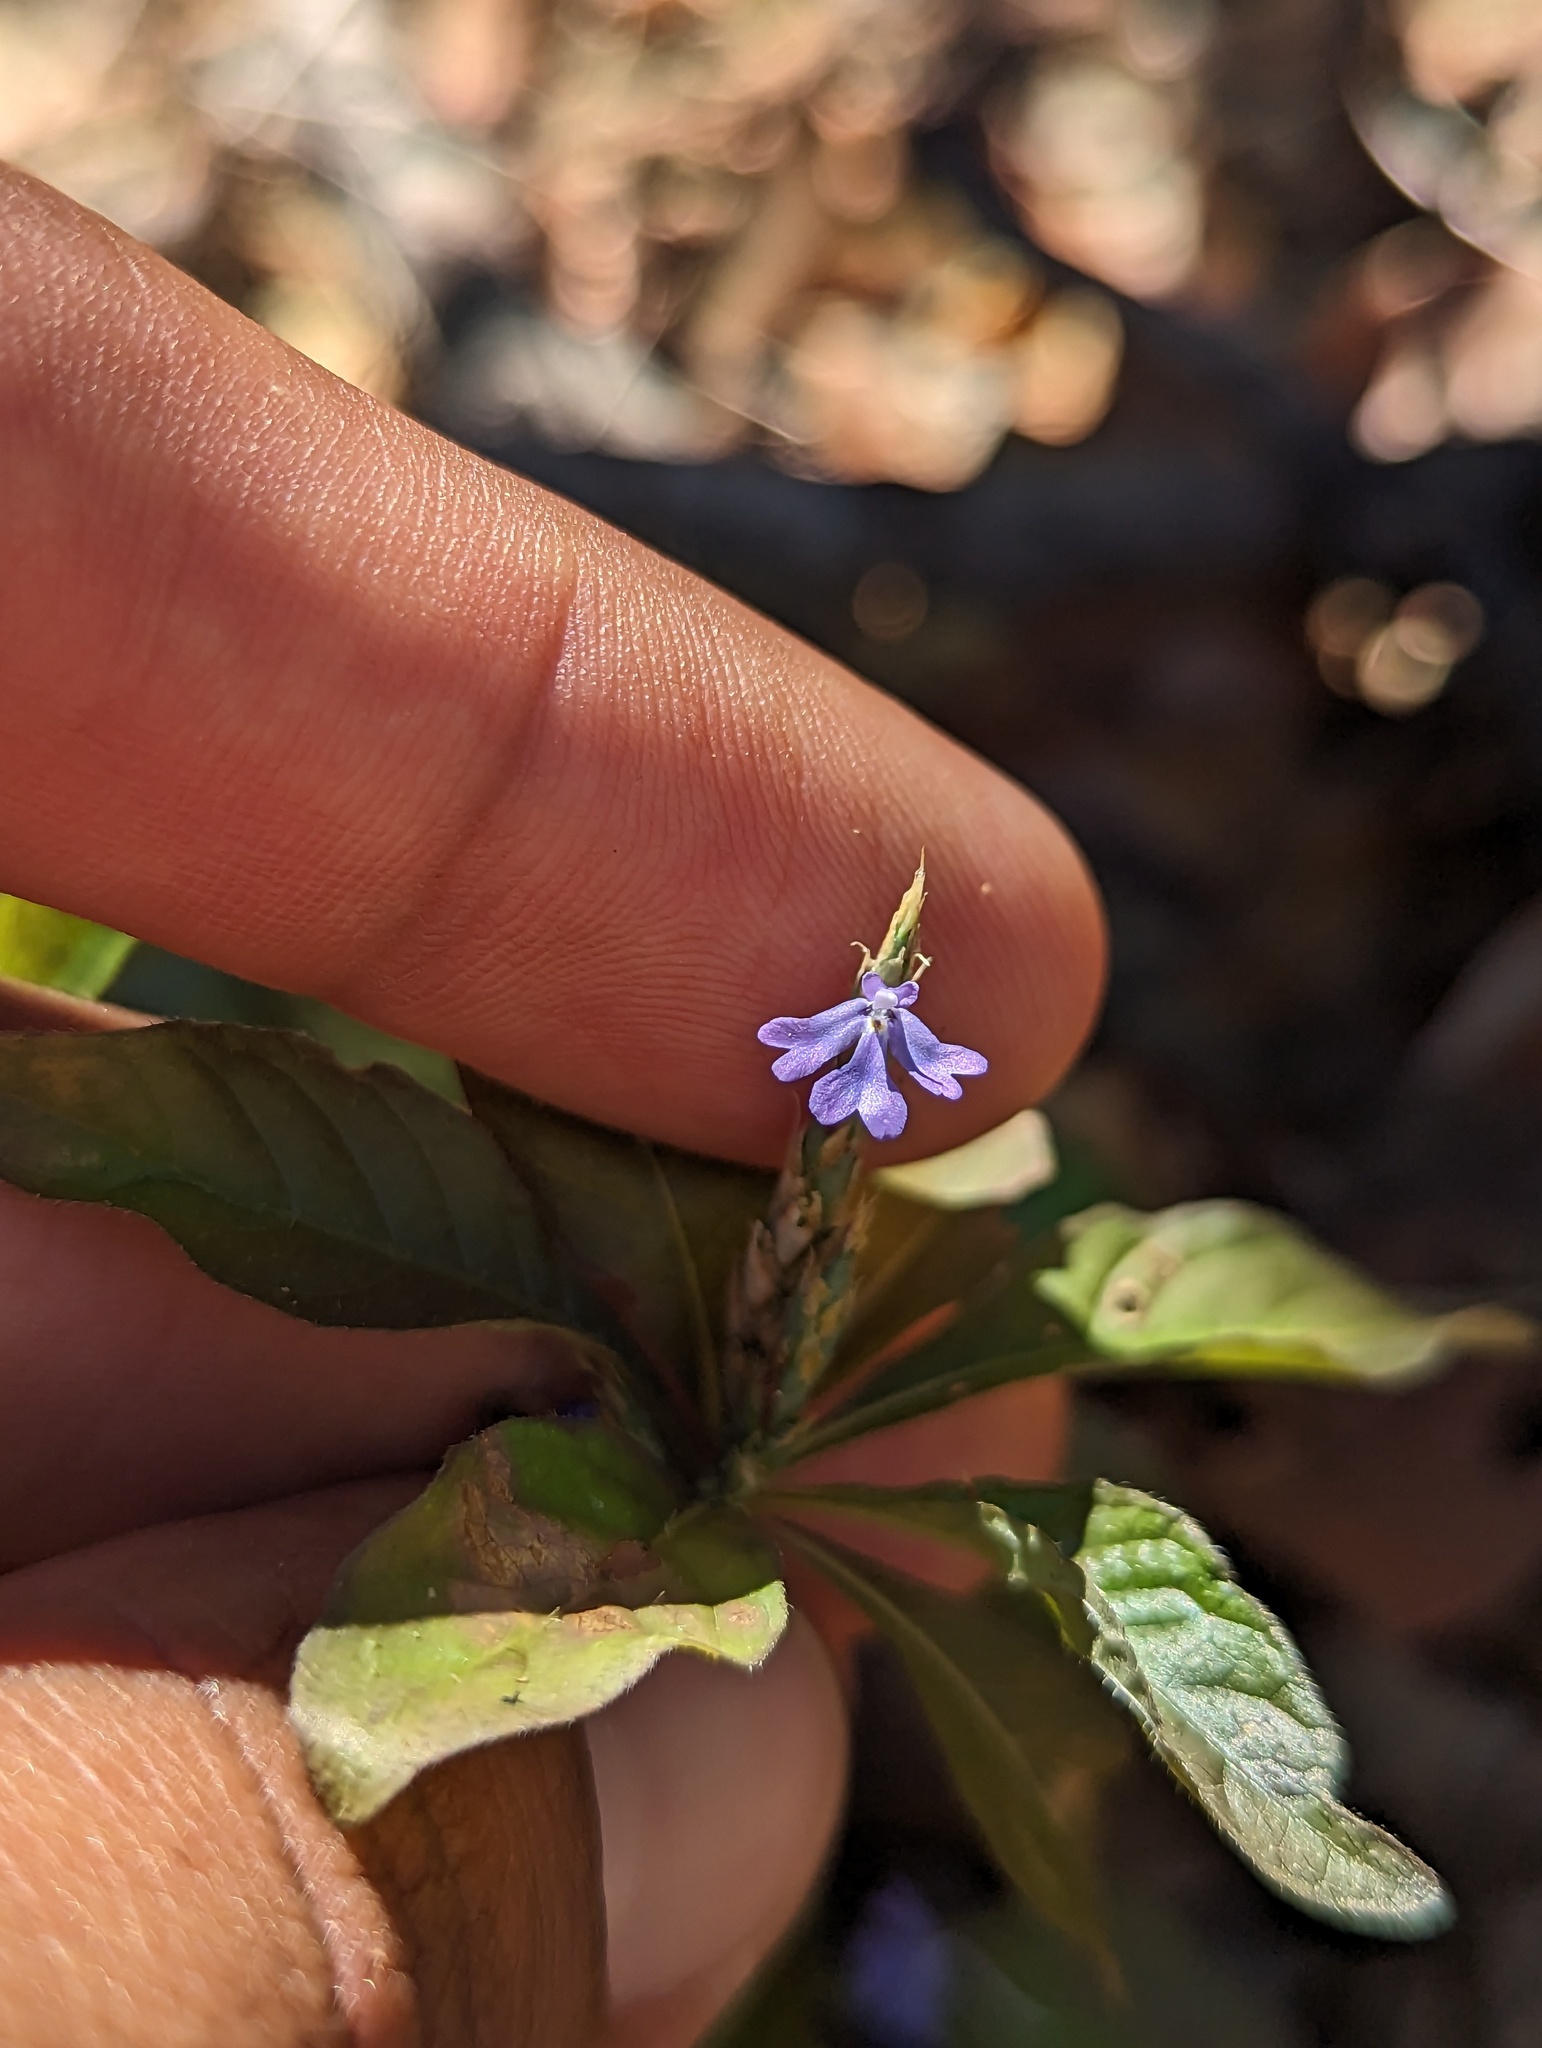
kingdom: Plantae
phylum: Tracheophyta
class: Magnoliopsida
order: Lamiales
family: Acanthaceae
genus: Elytraria
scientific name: Elytraria imbricata
